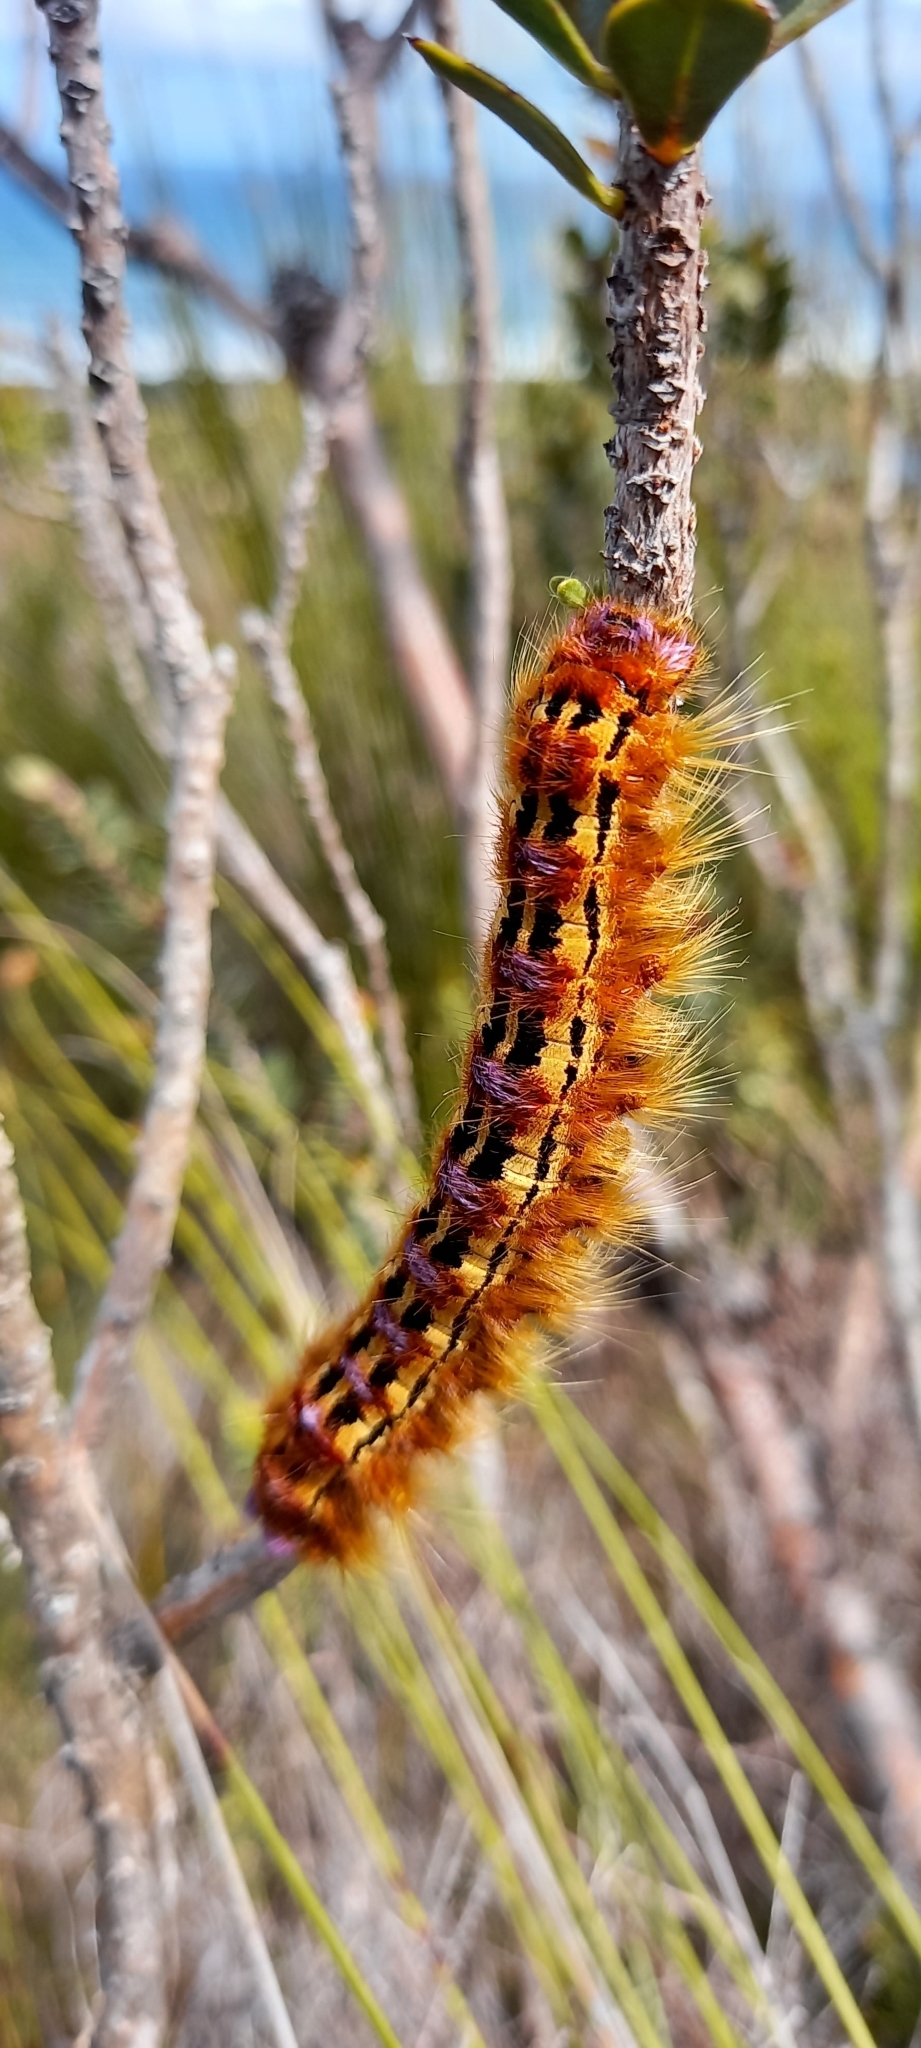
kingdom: Animalia
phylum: Arthropoda
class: Insecta
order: Lepidoptera
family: Lasiocampidae
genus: Eutricha
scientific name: Eutricha bifascia
